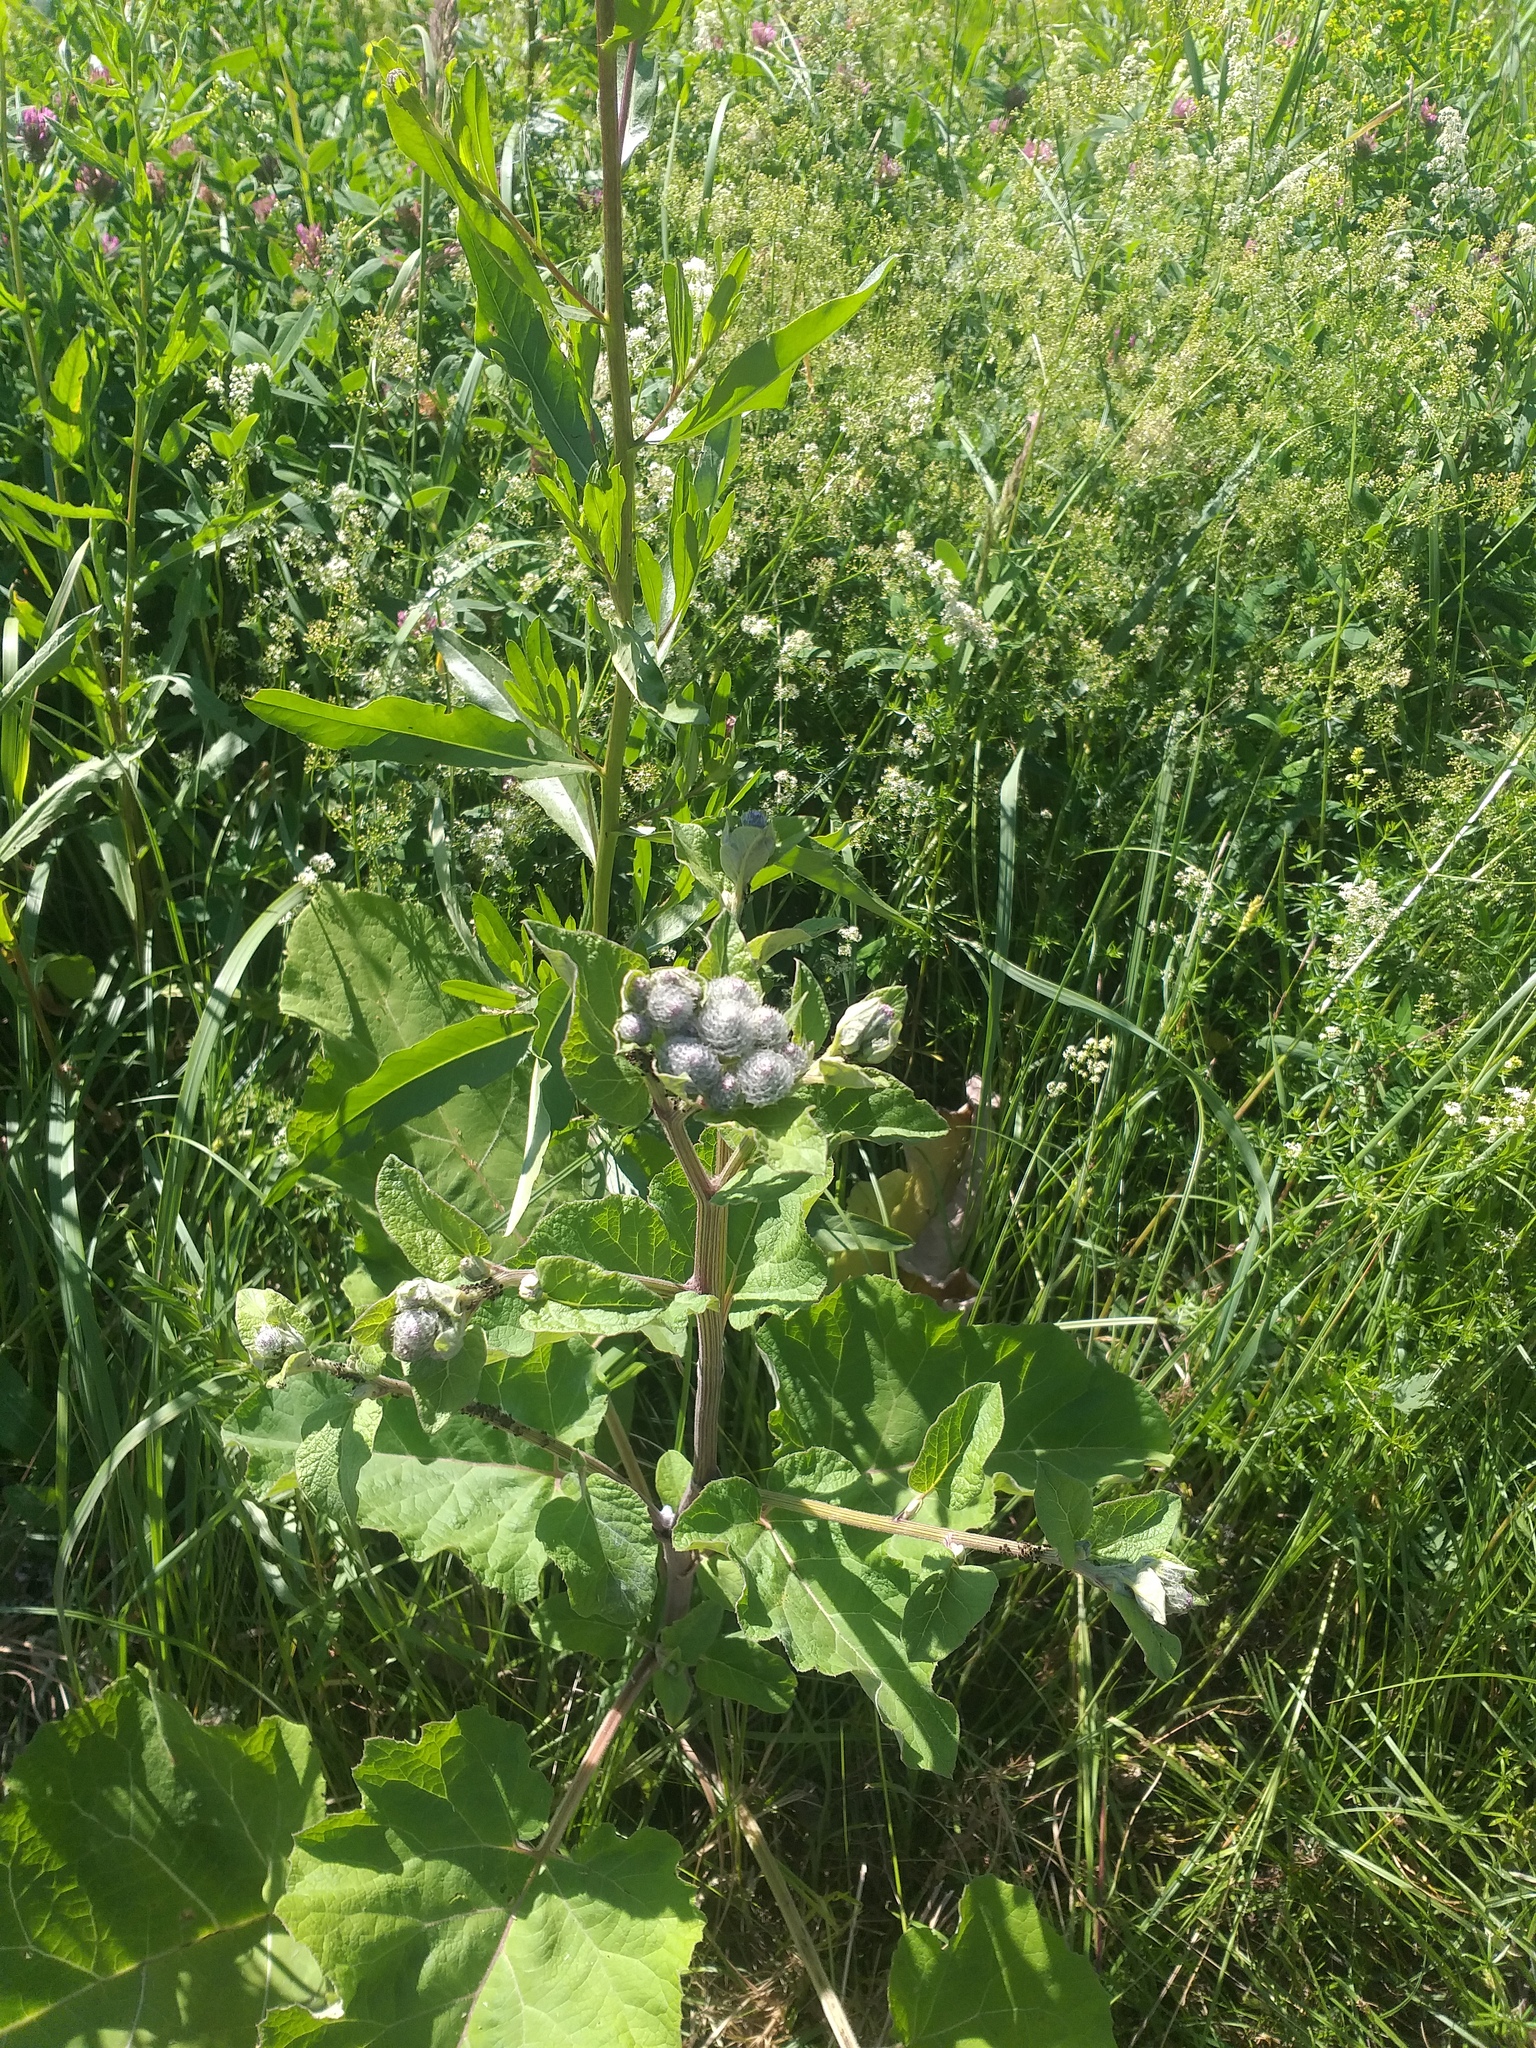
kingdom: Plantae
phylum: Tracheophyta
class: Magnoliopsida
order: Asterales
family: Asteraceae
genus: Arctium
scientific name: Arctium tomentosum
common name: Woolly burdock
